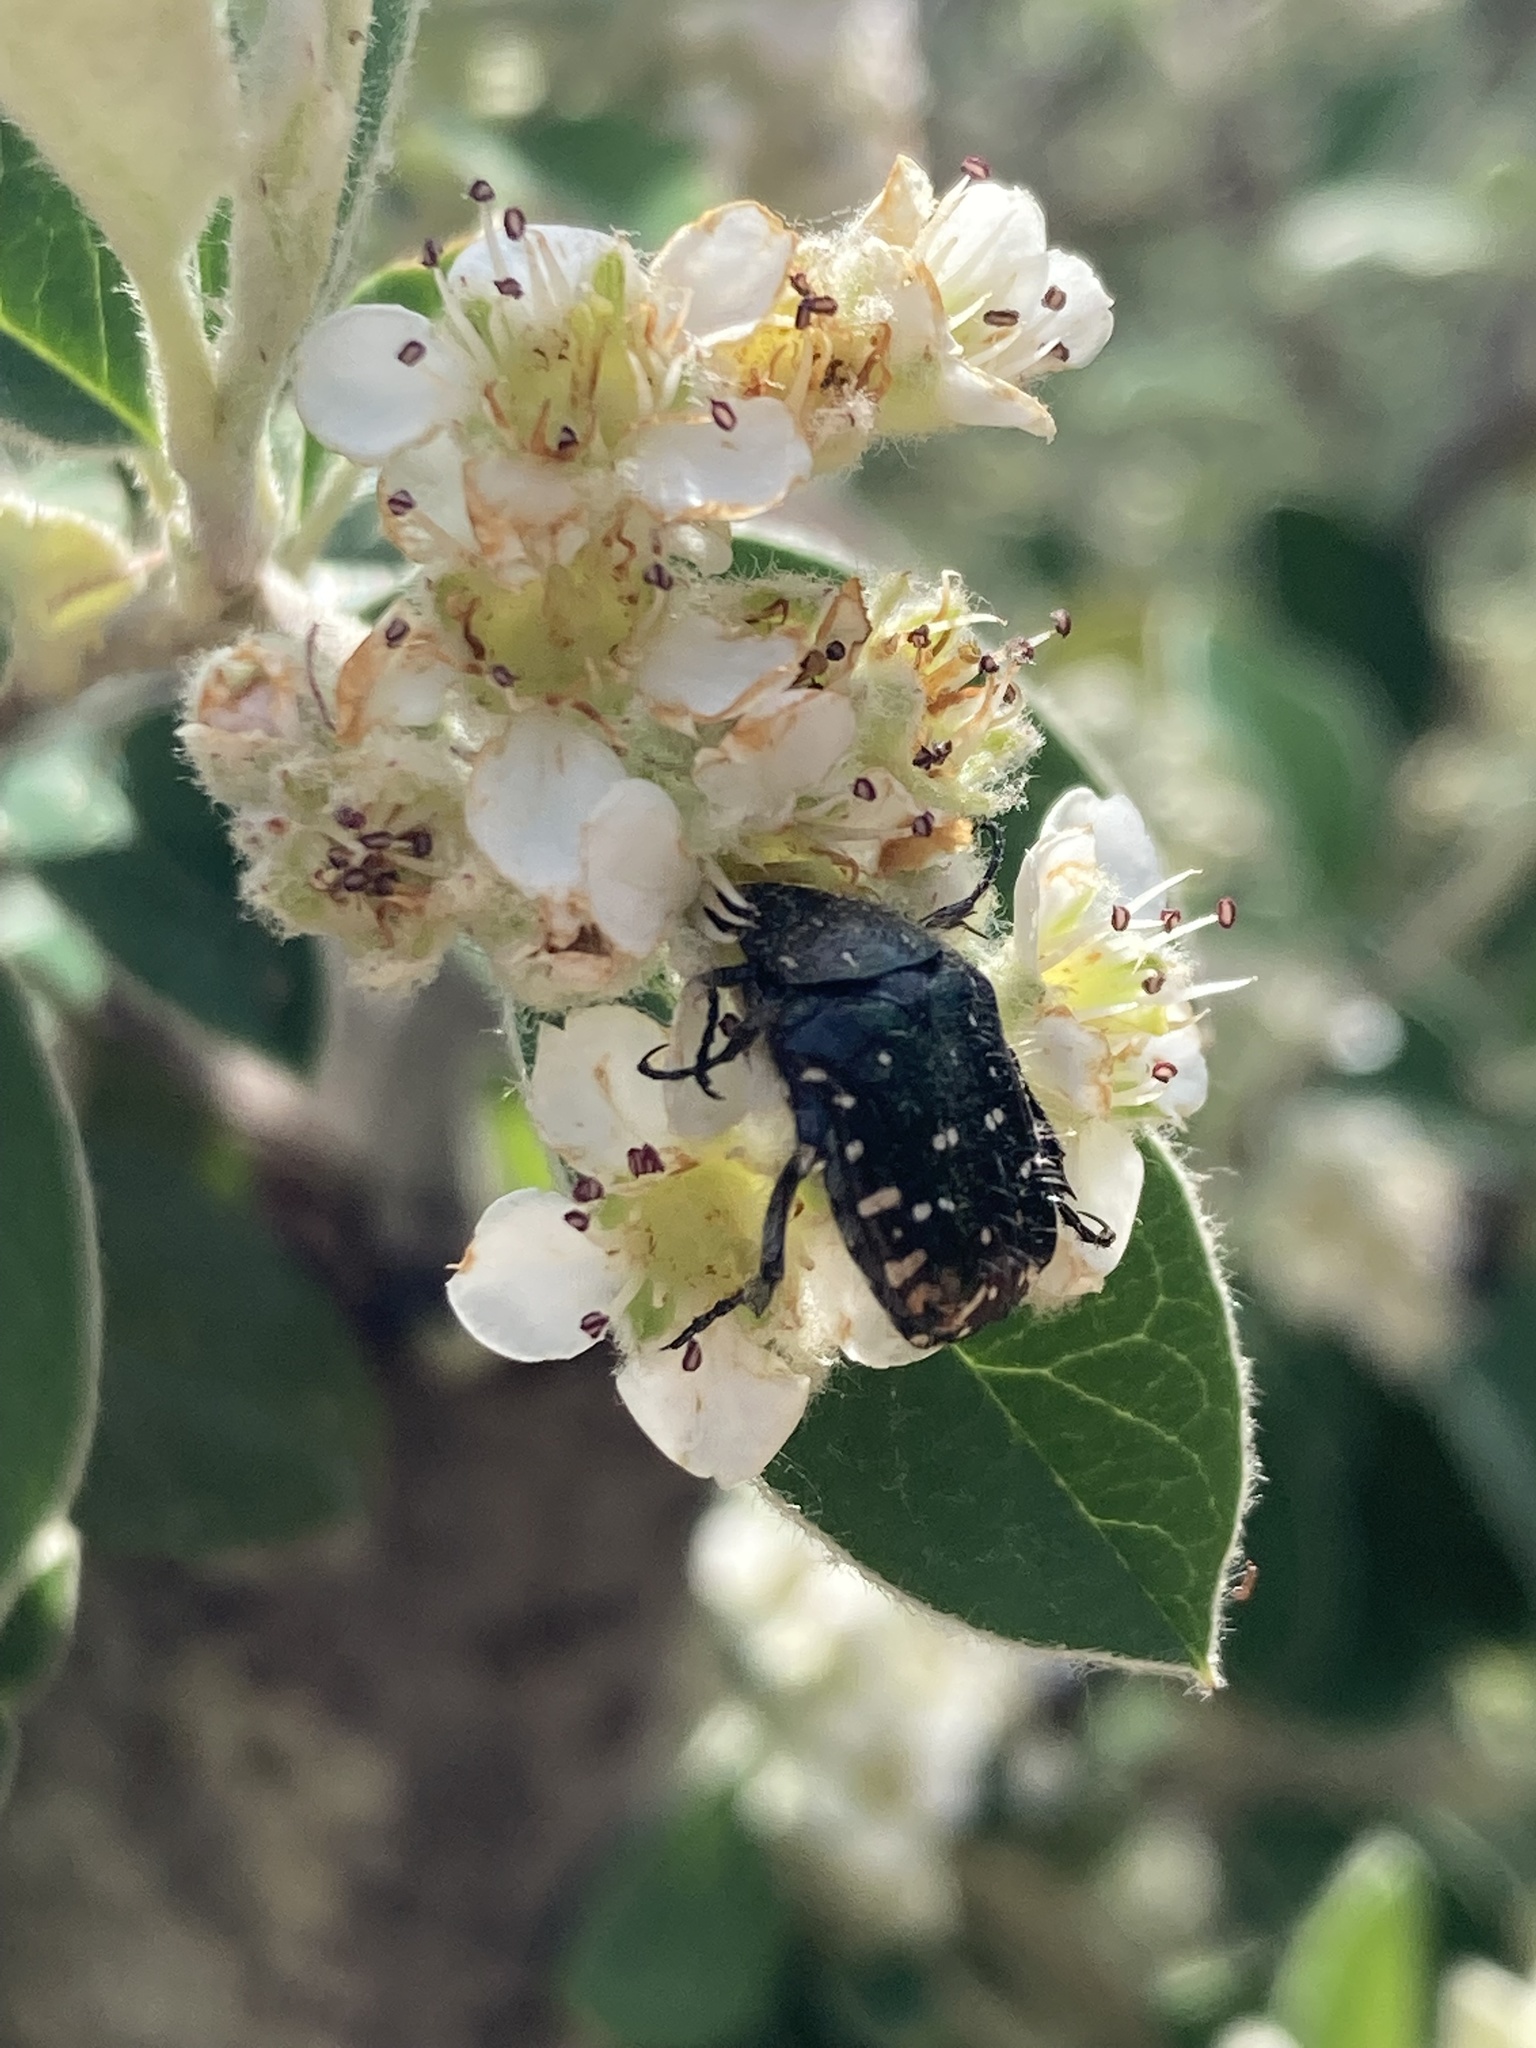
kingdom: Animalia
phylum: Arthropoda
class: Insecta
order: Coleoptera
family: Scarabaeidae
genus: Oxythyrea
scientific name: Oxythyrea funesta
